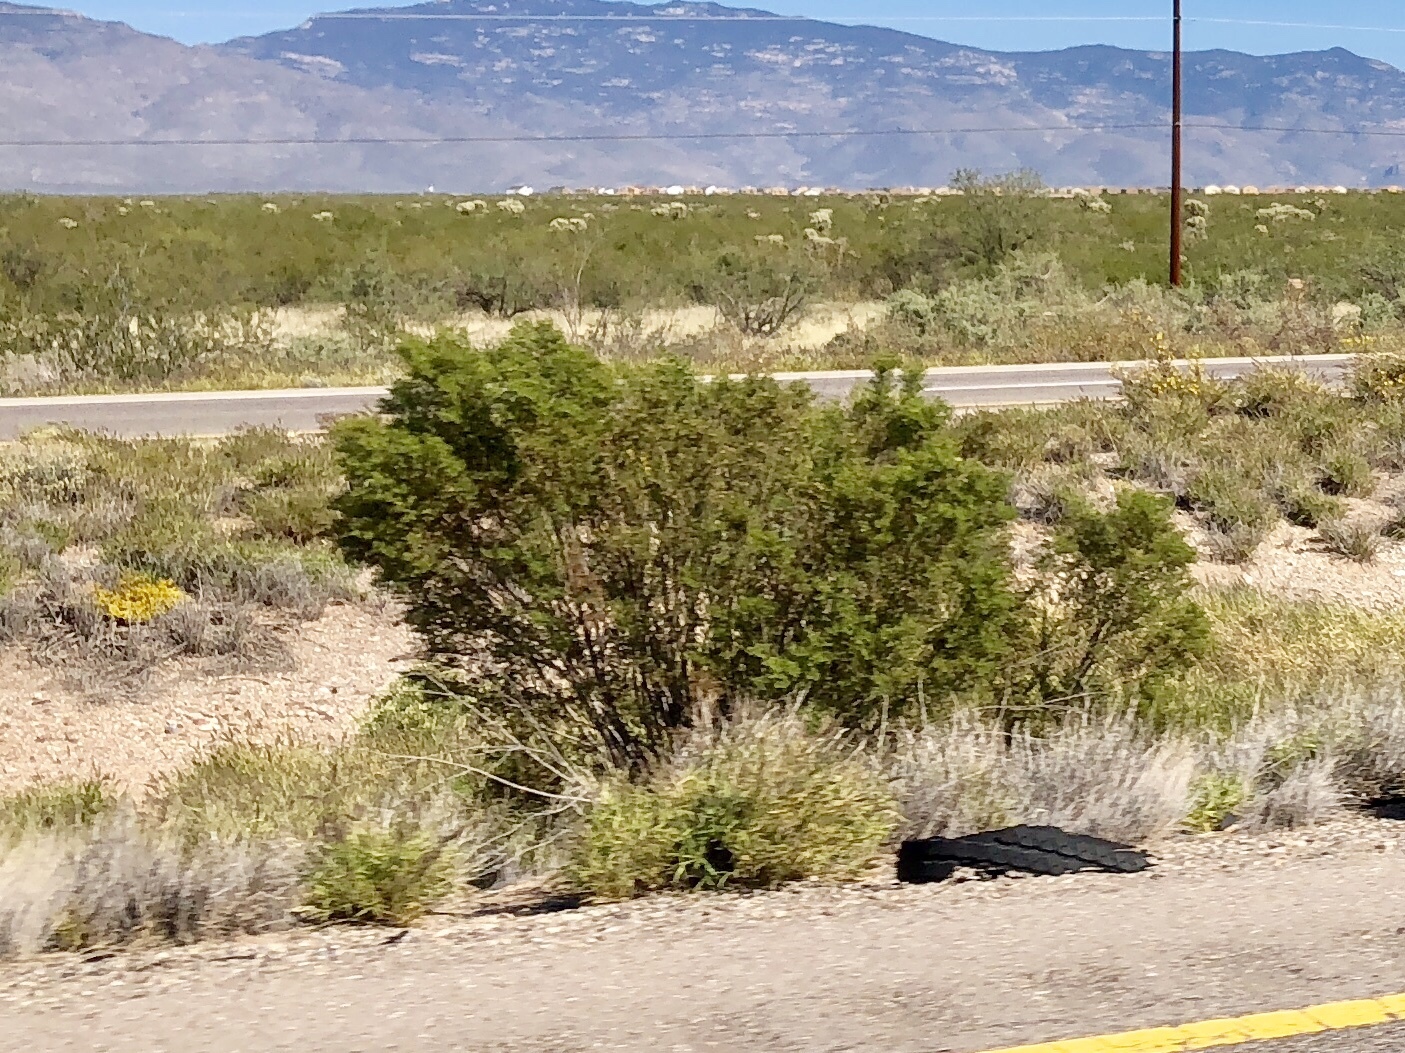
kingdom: Plantae
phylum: Tracheophyta
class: Magnoliopsida
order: Zygophyllales
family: Zygophyllaceae
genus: Larrea
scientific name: Larrea tridentata
